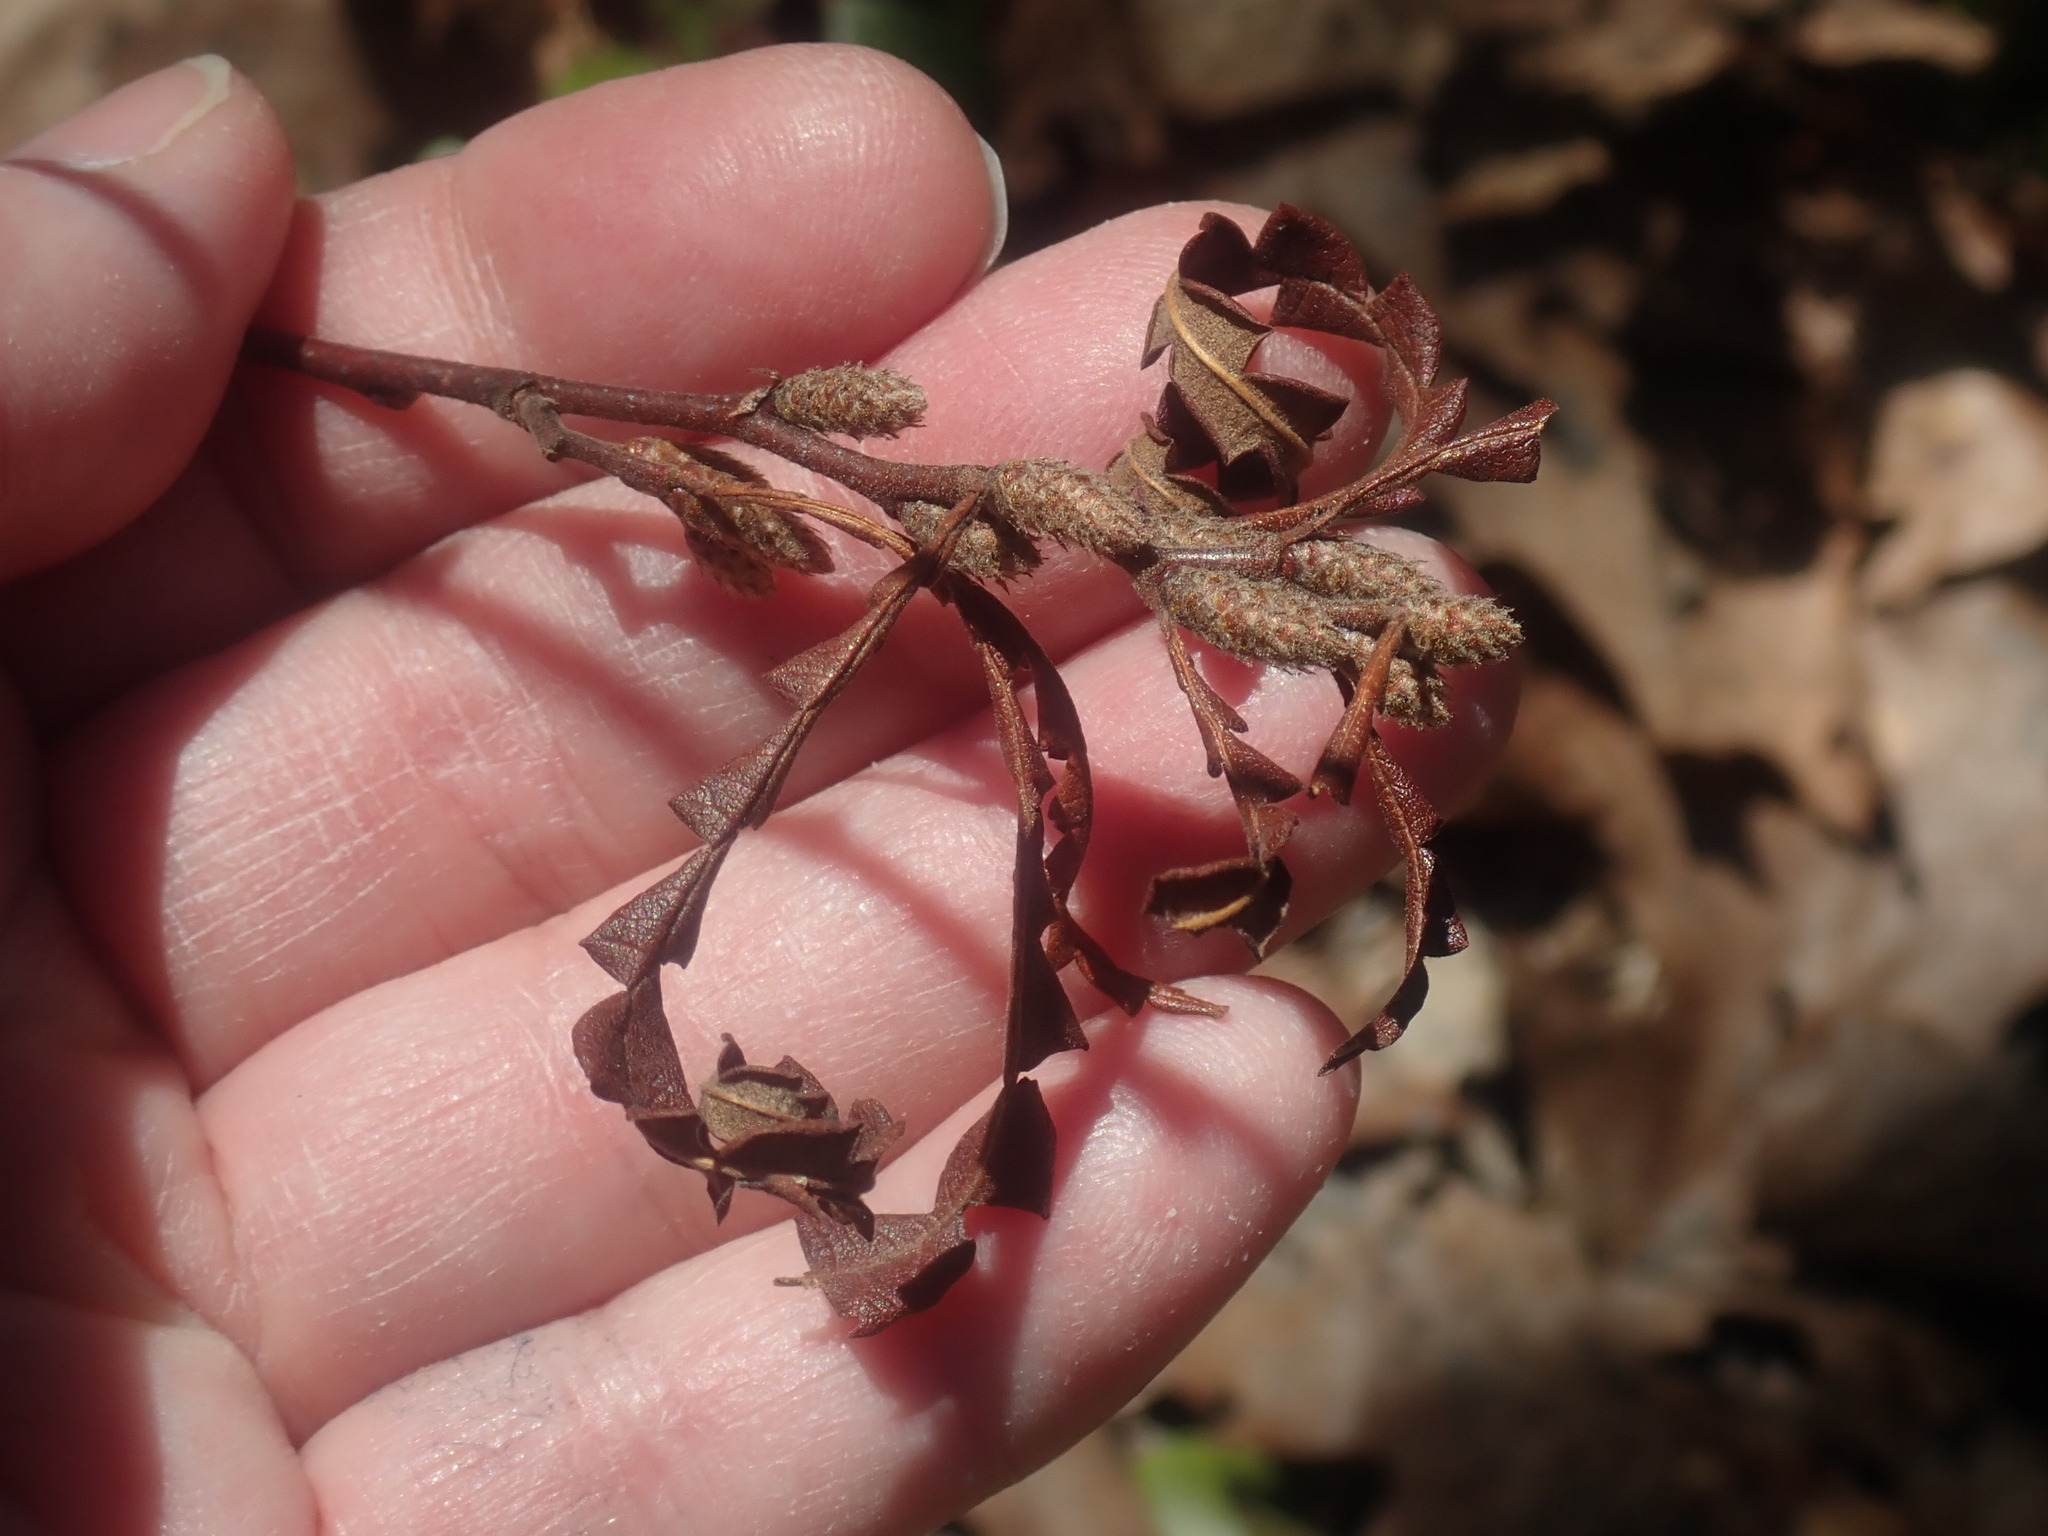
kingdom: Plantae
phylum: Tracheophyta
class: Magnoliopsida
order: Fagales
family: Myricaceae
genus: Comptonia
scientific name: Comptonia peregrina
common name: Sweet-fern
